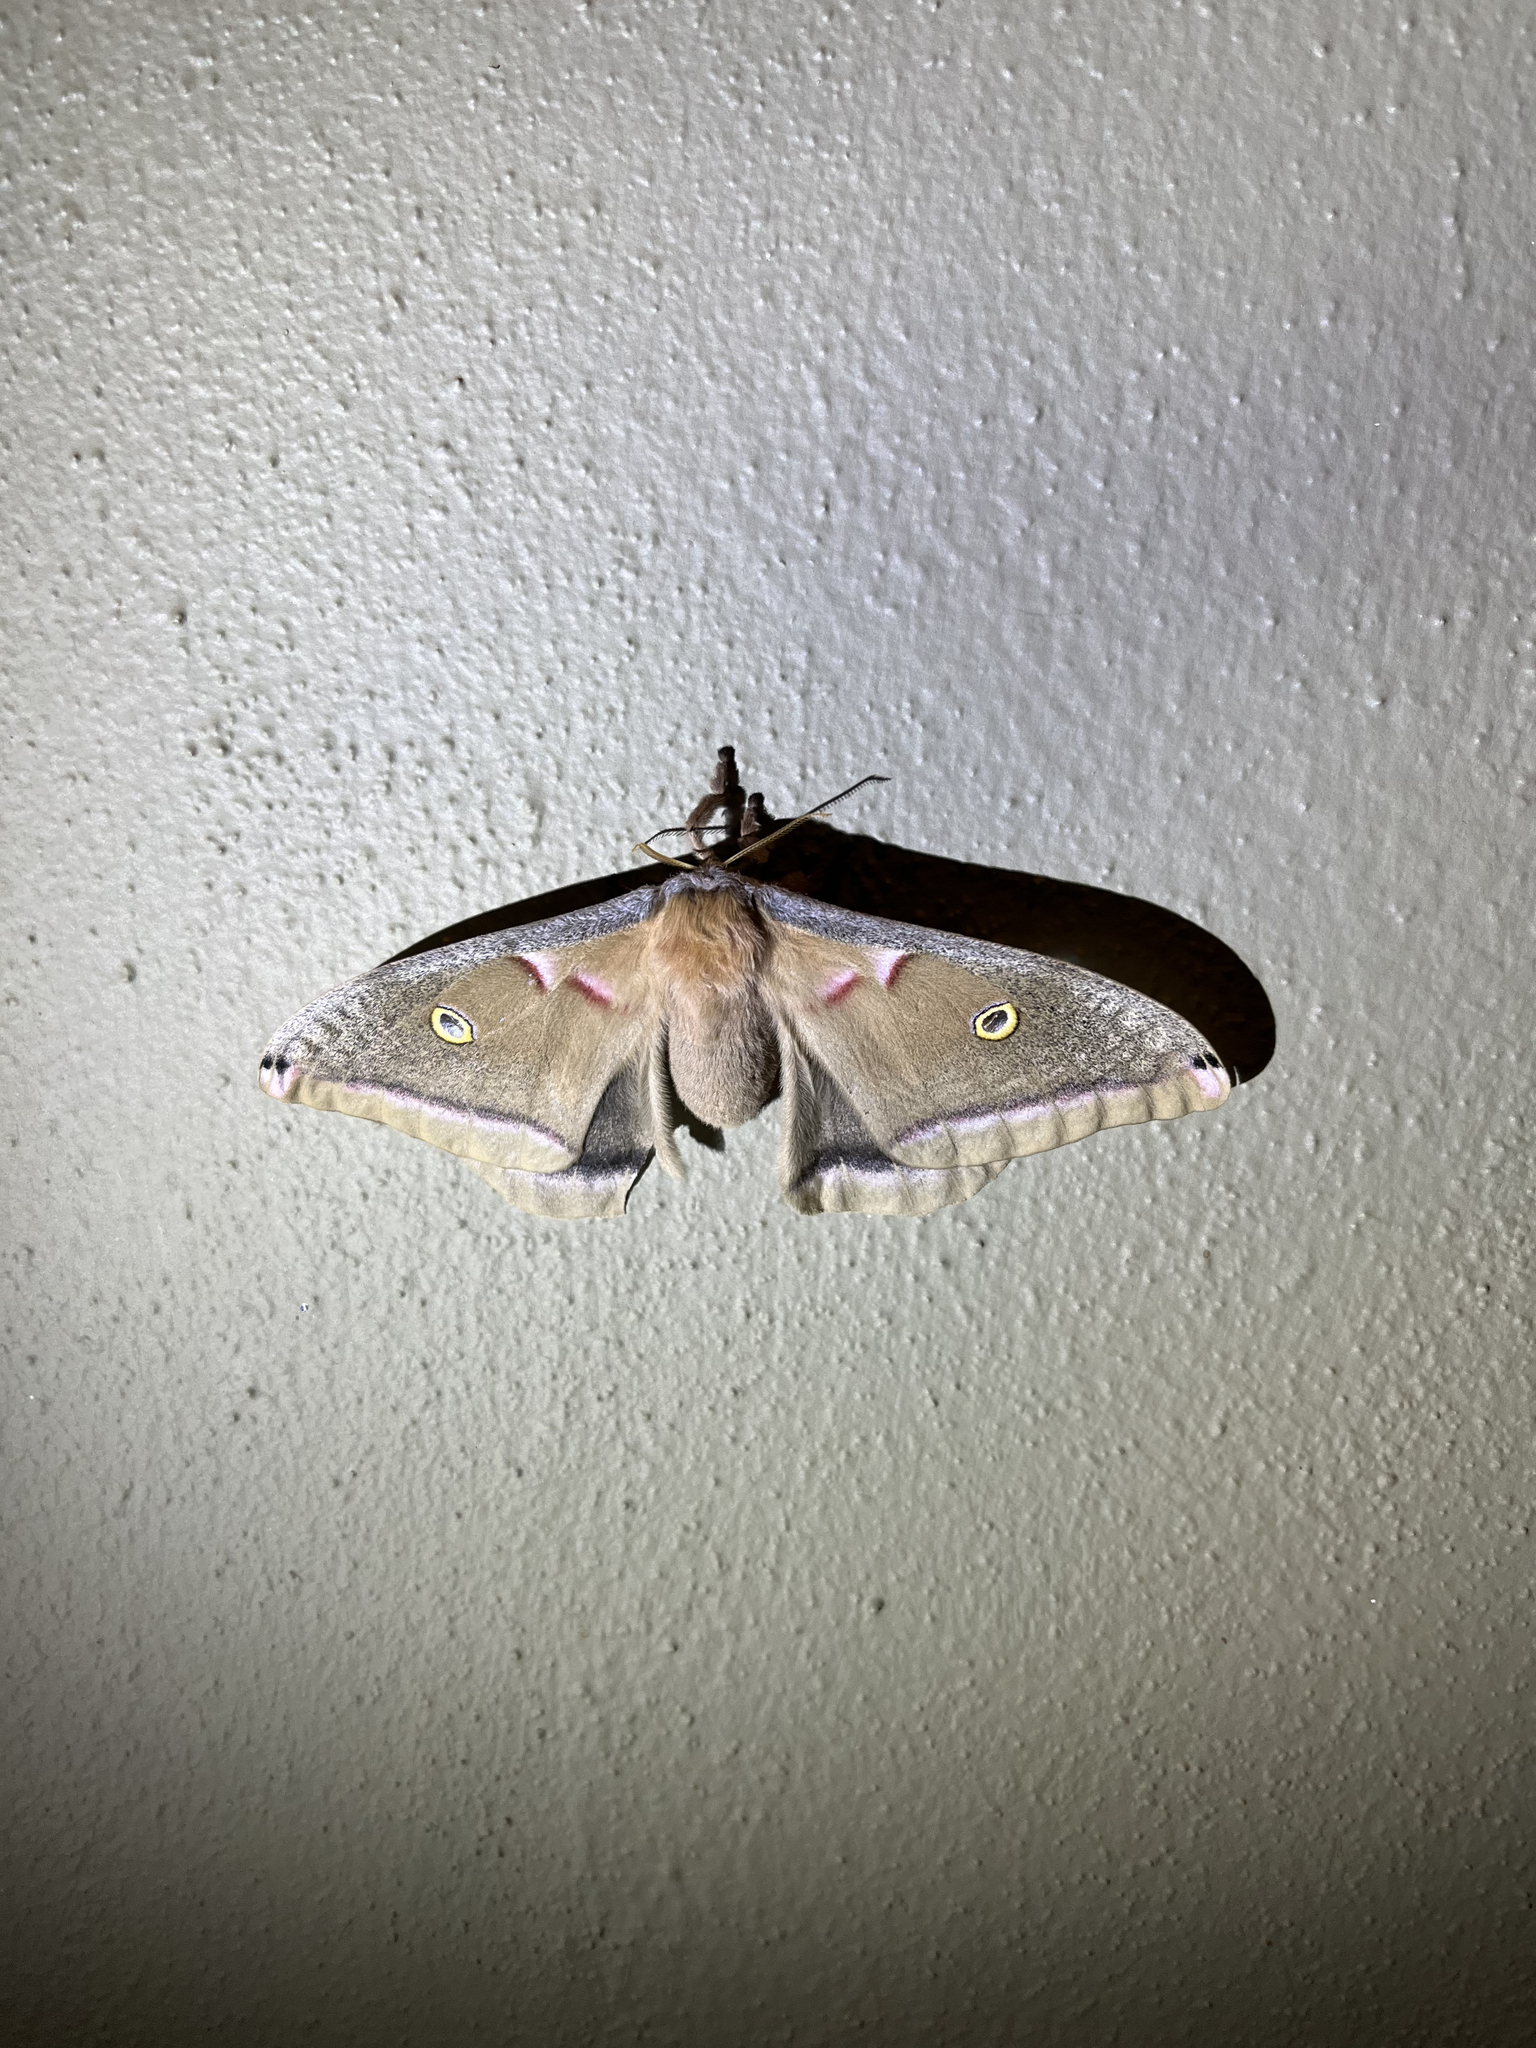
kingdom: Animalia
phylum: Arthropoda
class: Insecta
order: Lepidoptera
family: Saturniidae
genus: Antheraea
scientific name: Antheraea polyphemus
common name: Polyphemus moth
